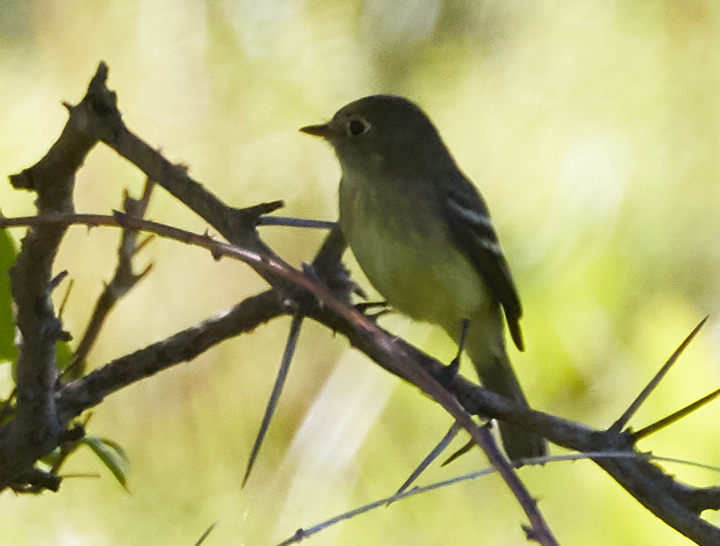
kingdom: Animalia
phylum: Chordata
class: Aves
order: Passeriformes
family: Tyrannidae
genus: Empidonax
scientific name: Empidonax minimus
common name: Least flycatcher
